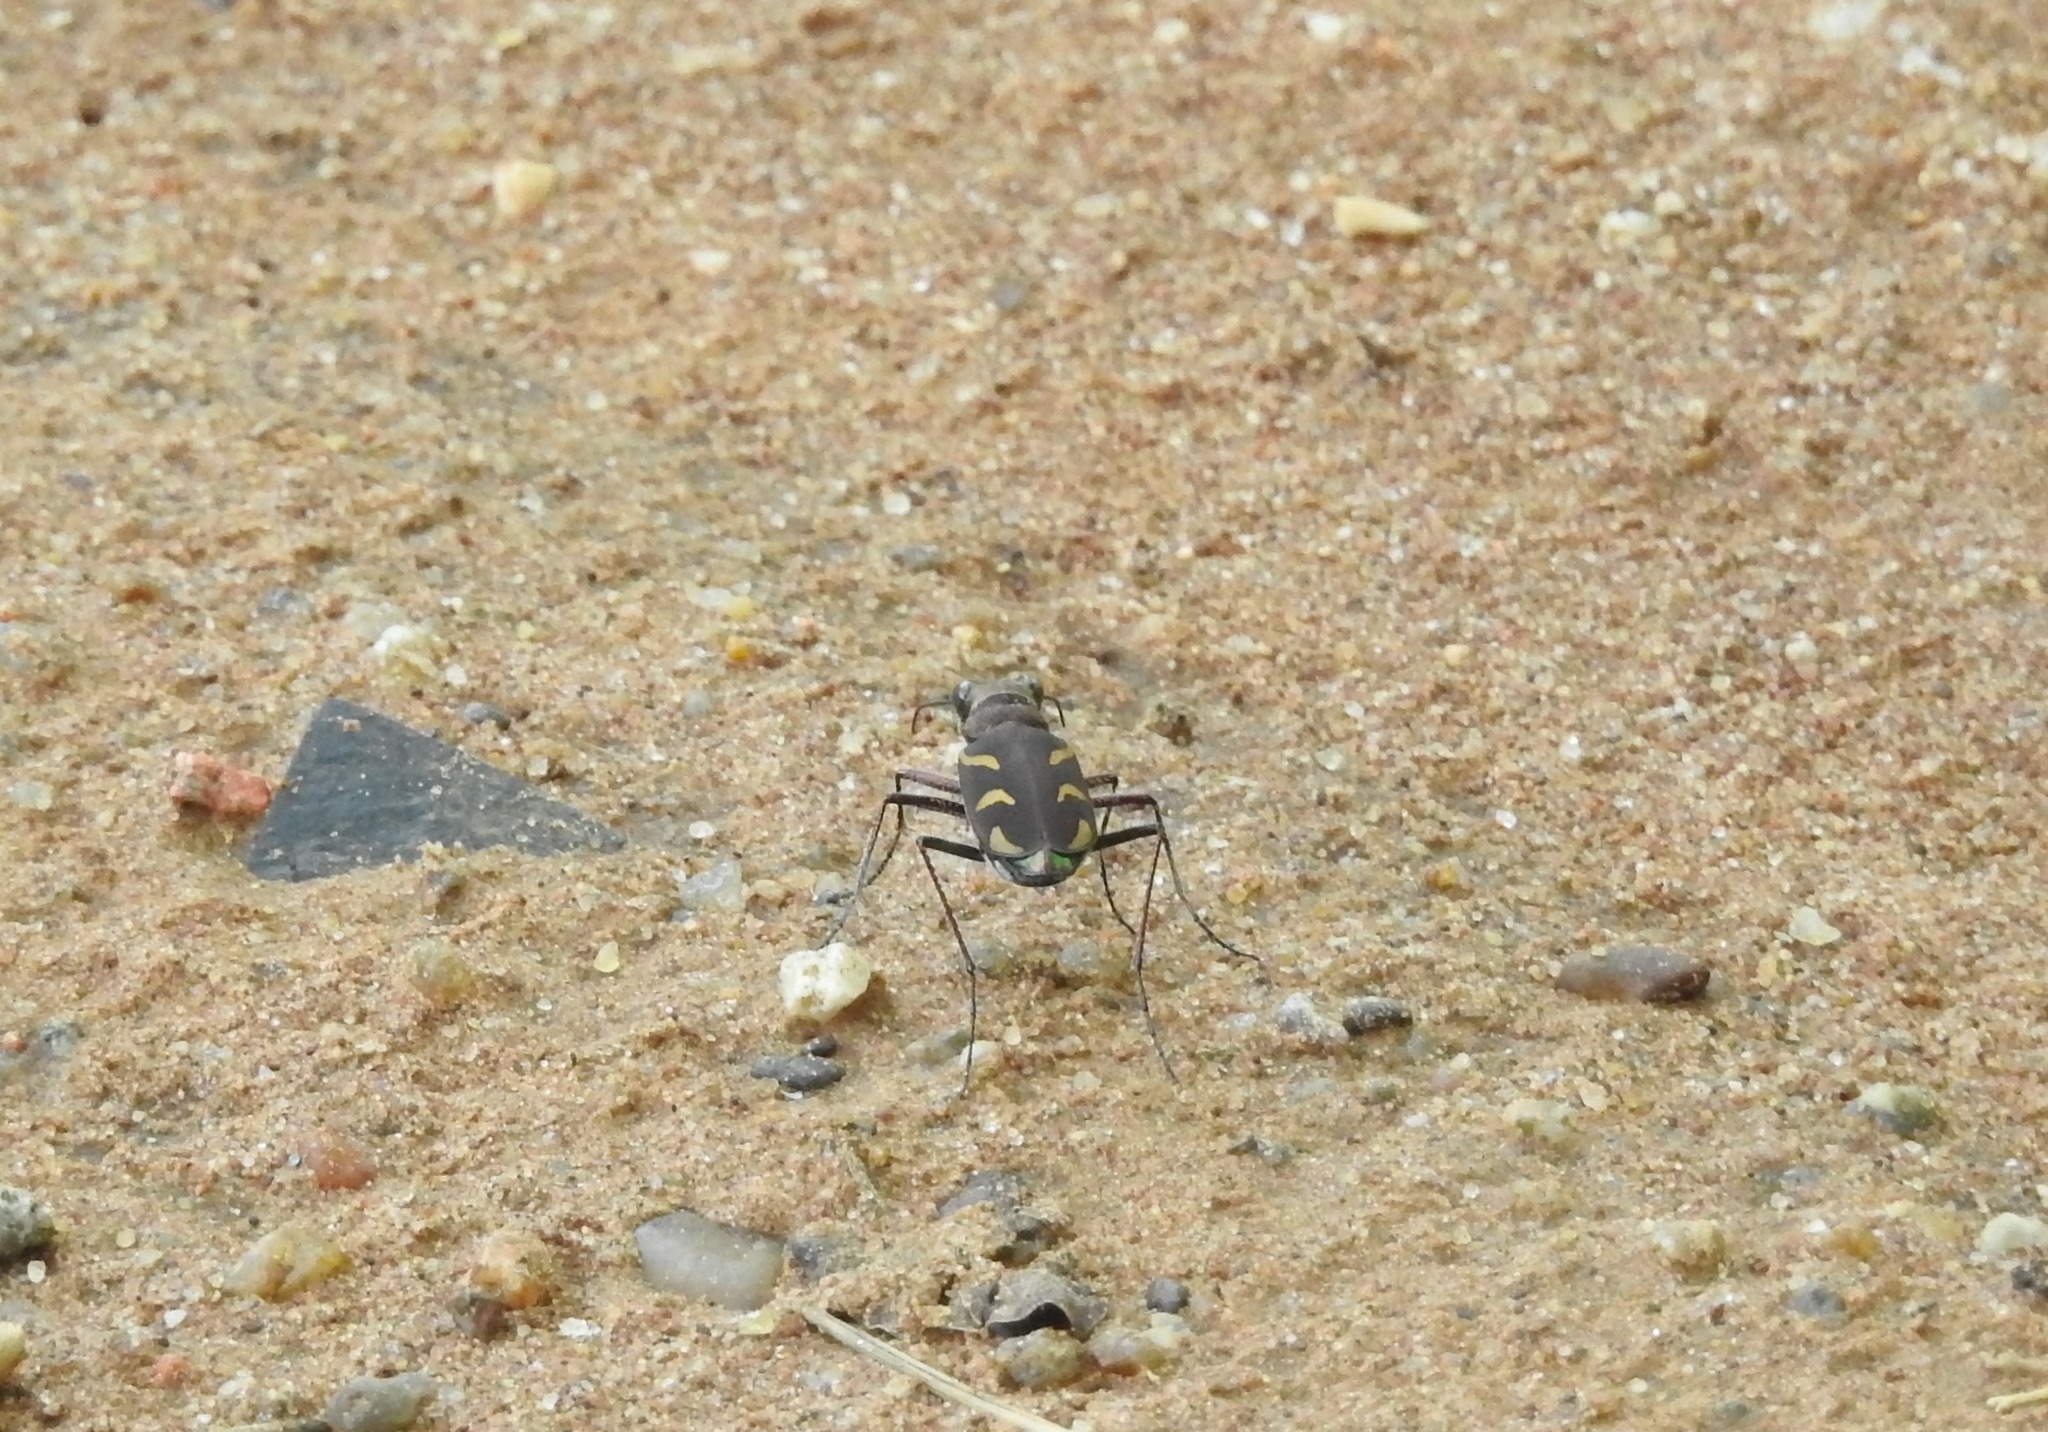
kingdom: Animalia
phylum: Arthropoda
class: Insecta
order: Coleoptera
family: Carabidae
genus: Cicindela
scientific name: Cicindela calligramma
